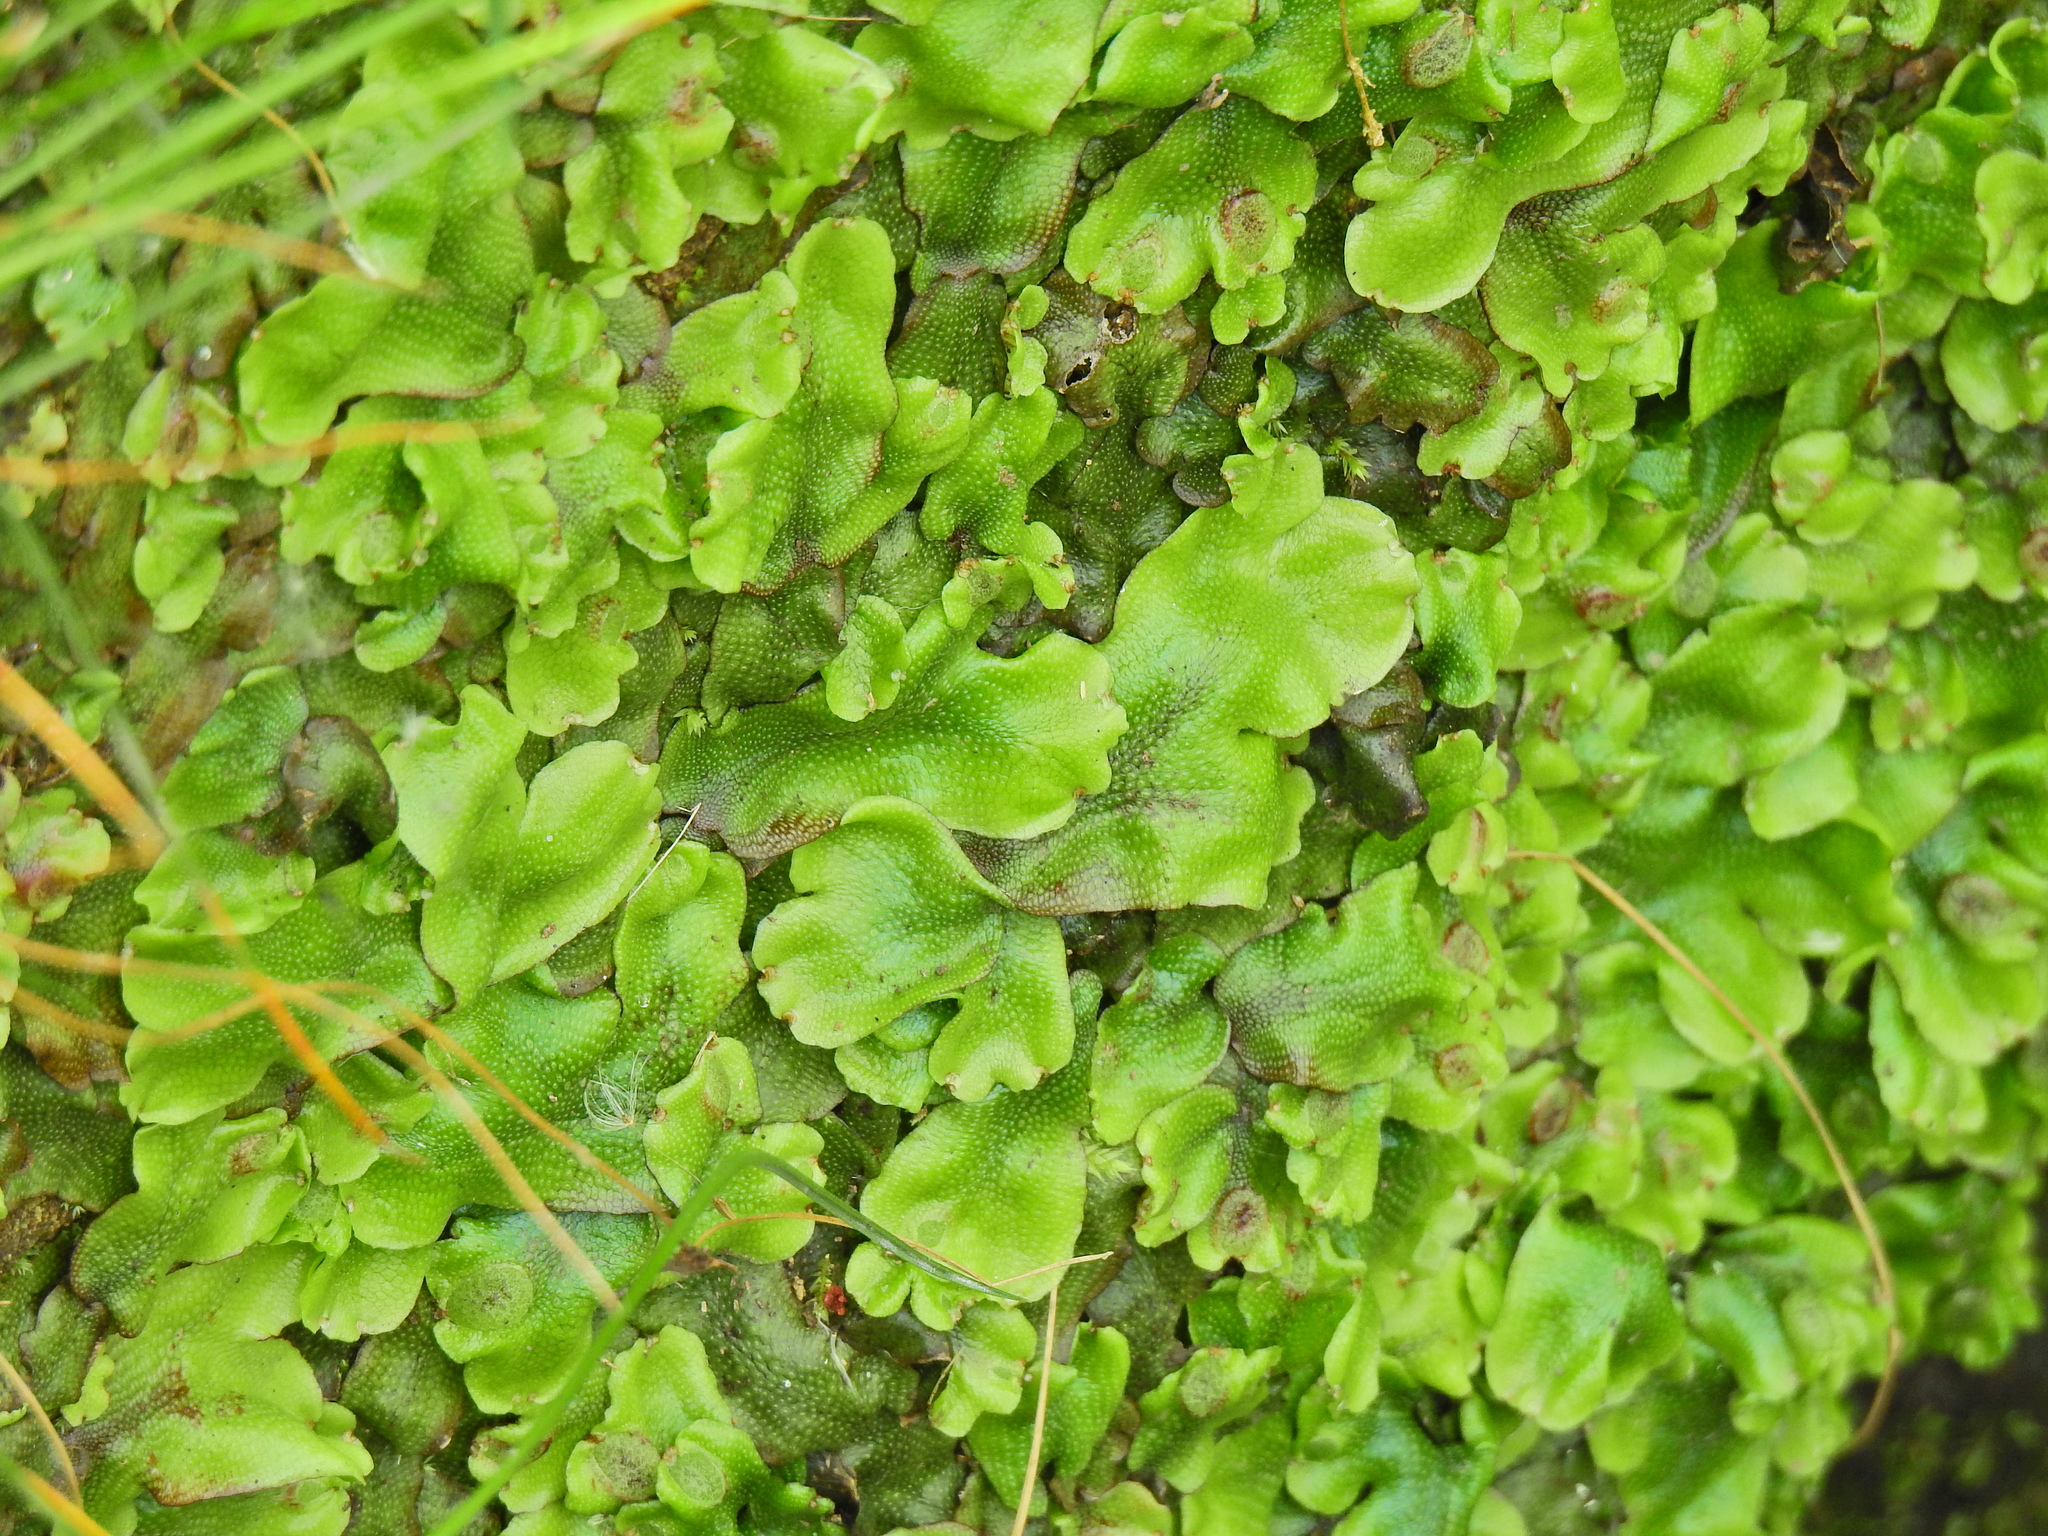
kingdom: Plantae
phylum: Marchantiophyta
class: Marchantiopsida
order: Marchantiales
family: Conocephalaceae
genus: Conocephalum
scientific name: Conocephalum conicum
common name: Great scented liverwort
